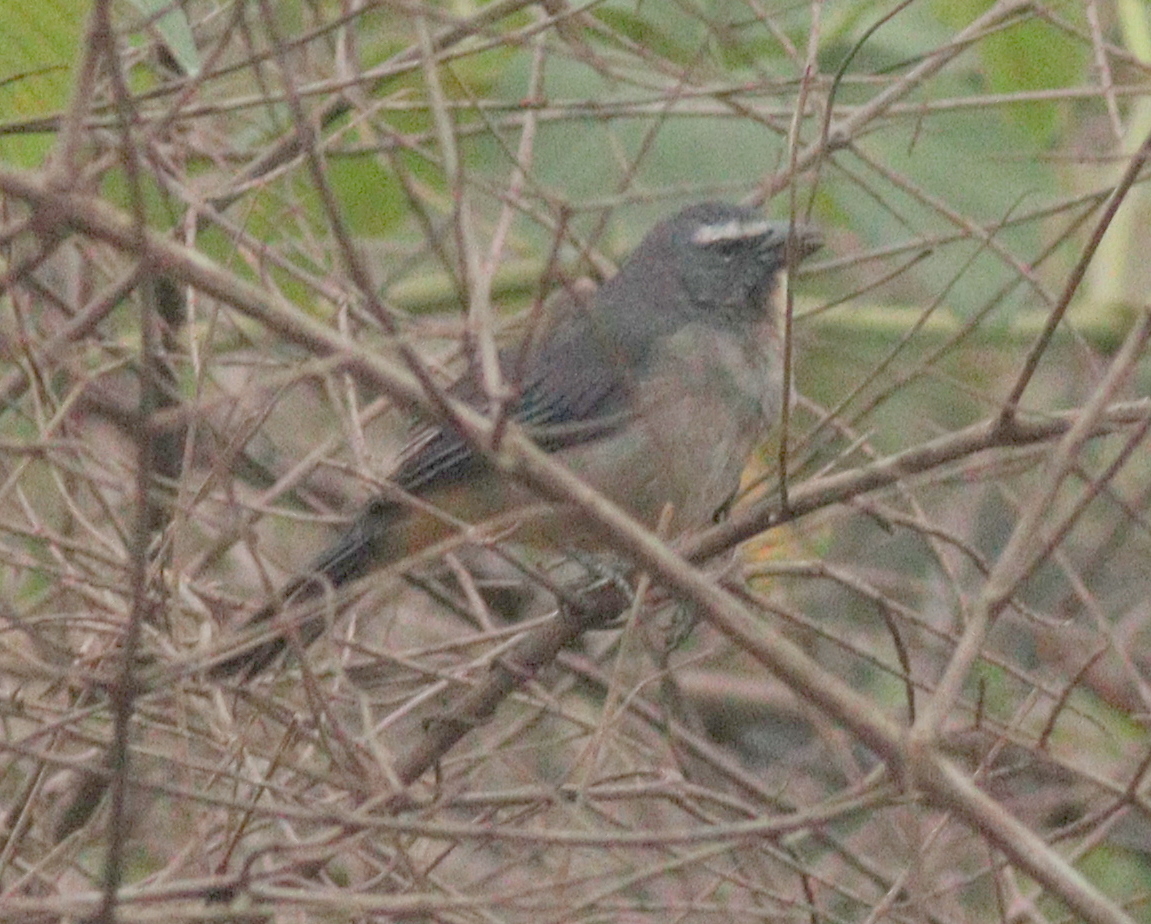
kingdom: Animalia
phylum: Chordata
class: Aves
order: Passeriformes
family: Thraupidae
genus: Saltator
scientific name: Saltator coerulescens
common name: Grayish saltator
